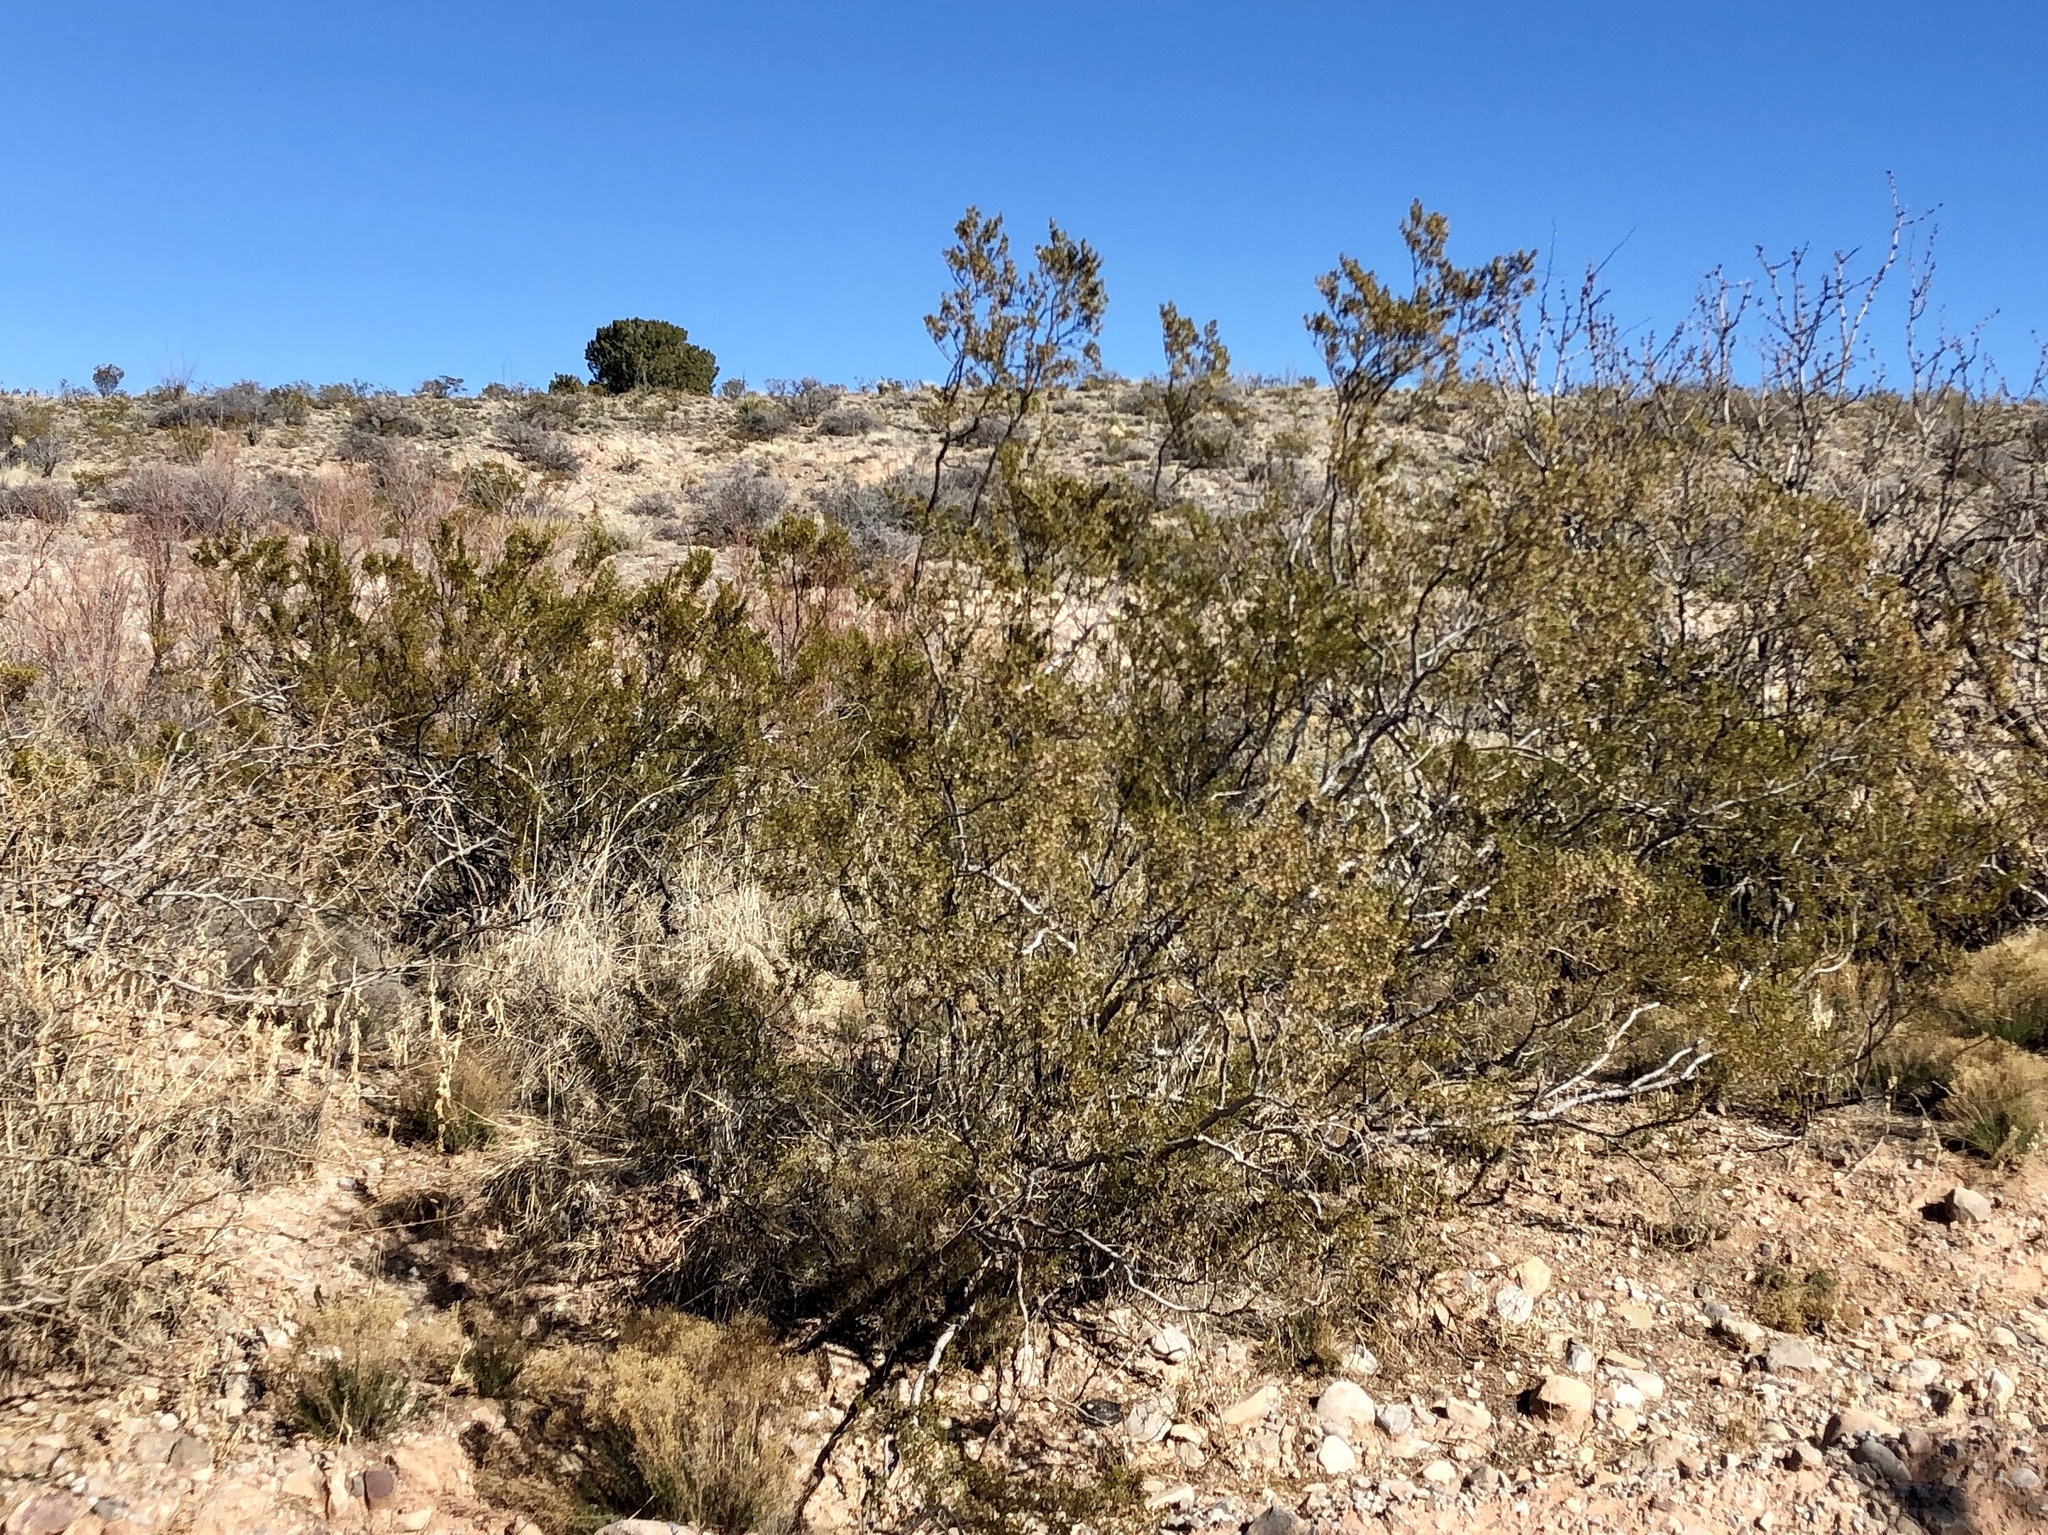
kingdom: Plantae
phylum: Tracheophyta
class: Magnoliopsida
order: Zygophyllales
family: Zygophyllaceae
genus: Larrea
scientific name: Larrea tridentata
